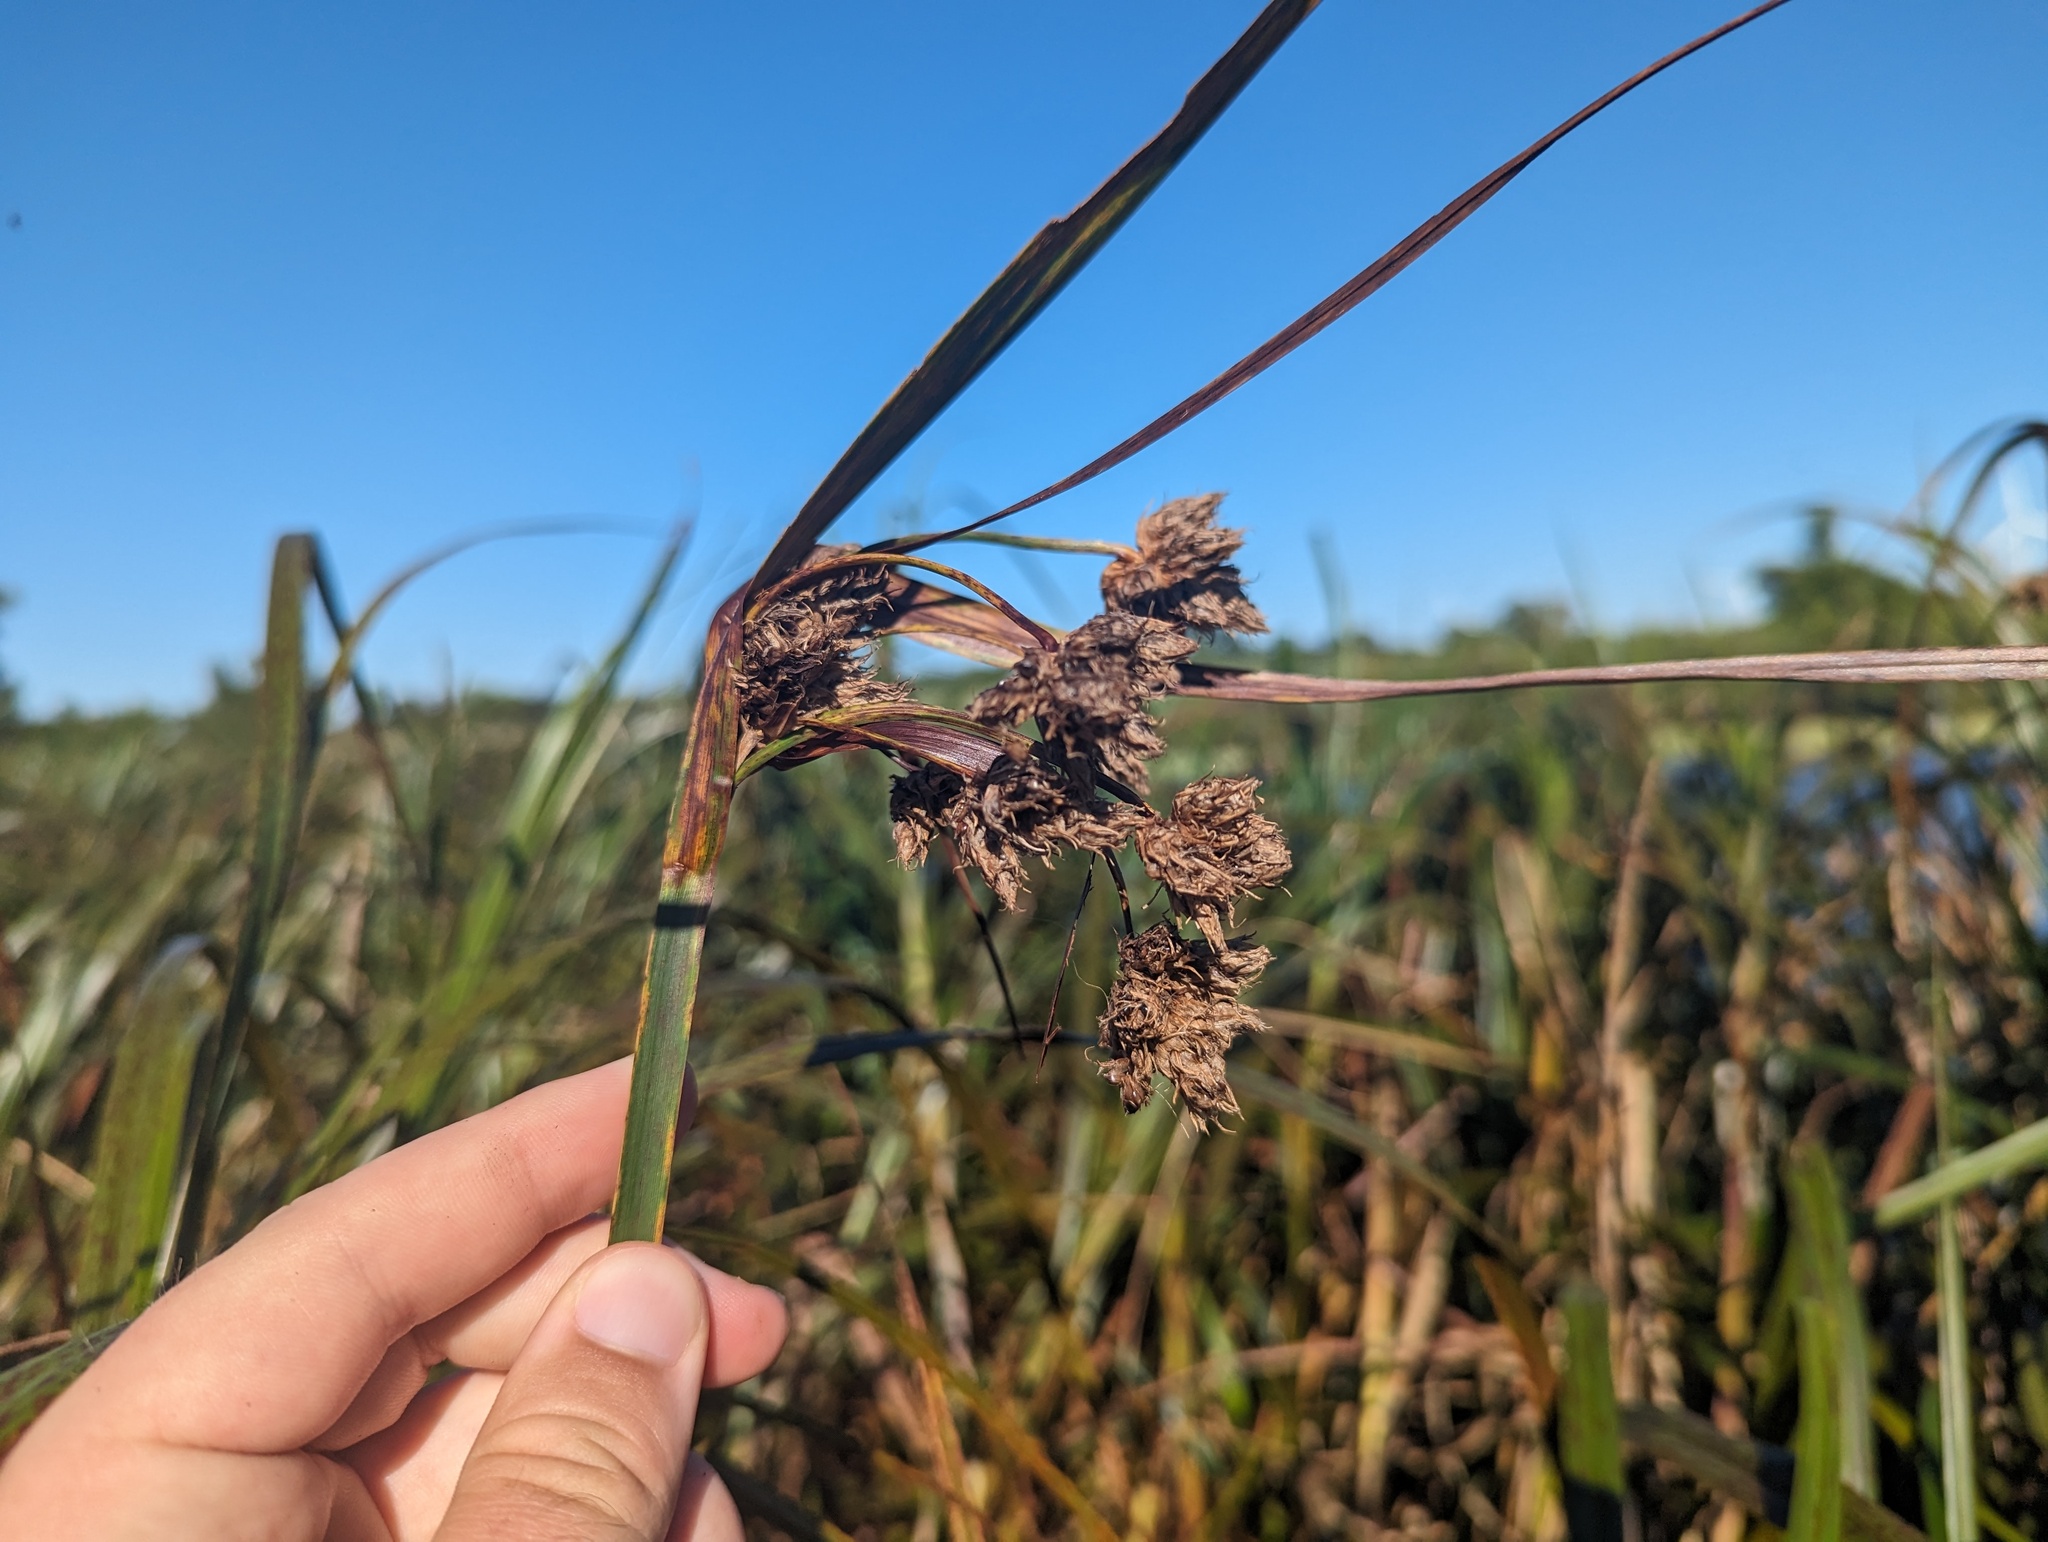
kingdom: Plantae
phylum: Tracheophyta
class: Liliopsida
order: Poales
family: Cyperaceae
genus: Bolboschoenus
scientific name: Bolboschoenus fluviatilis
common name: River bulrush
